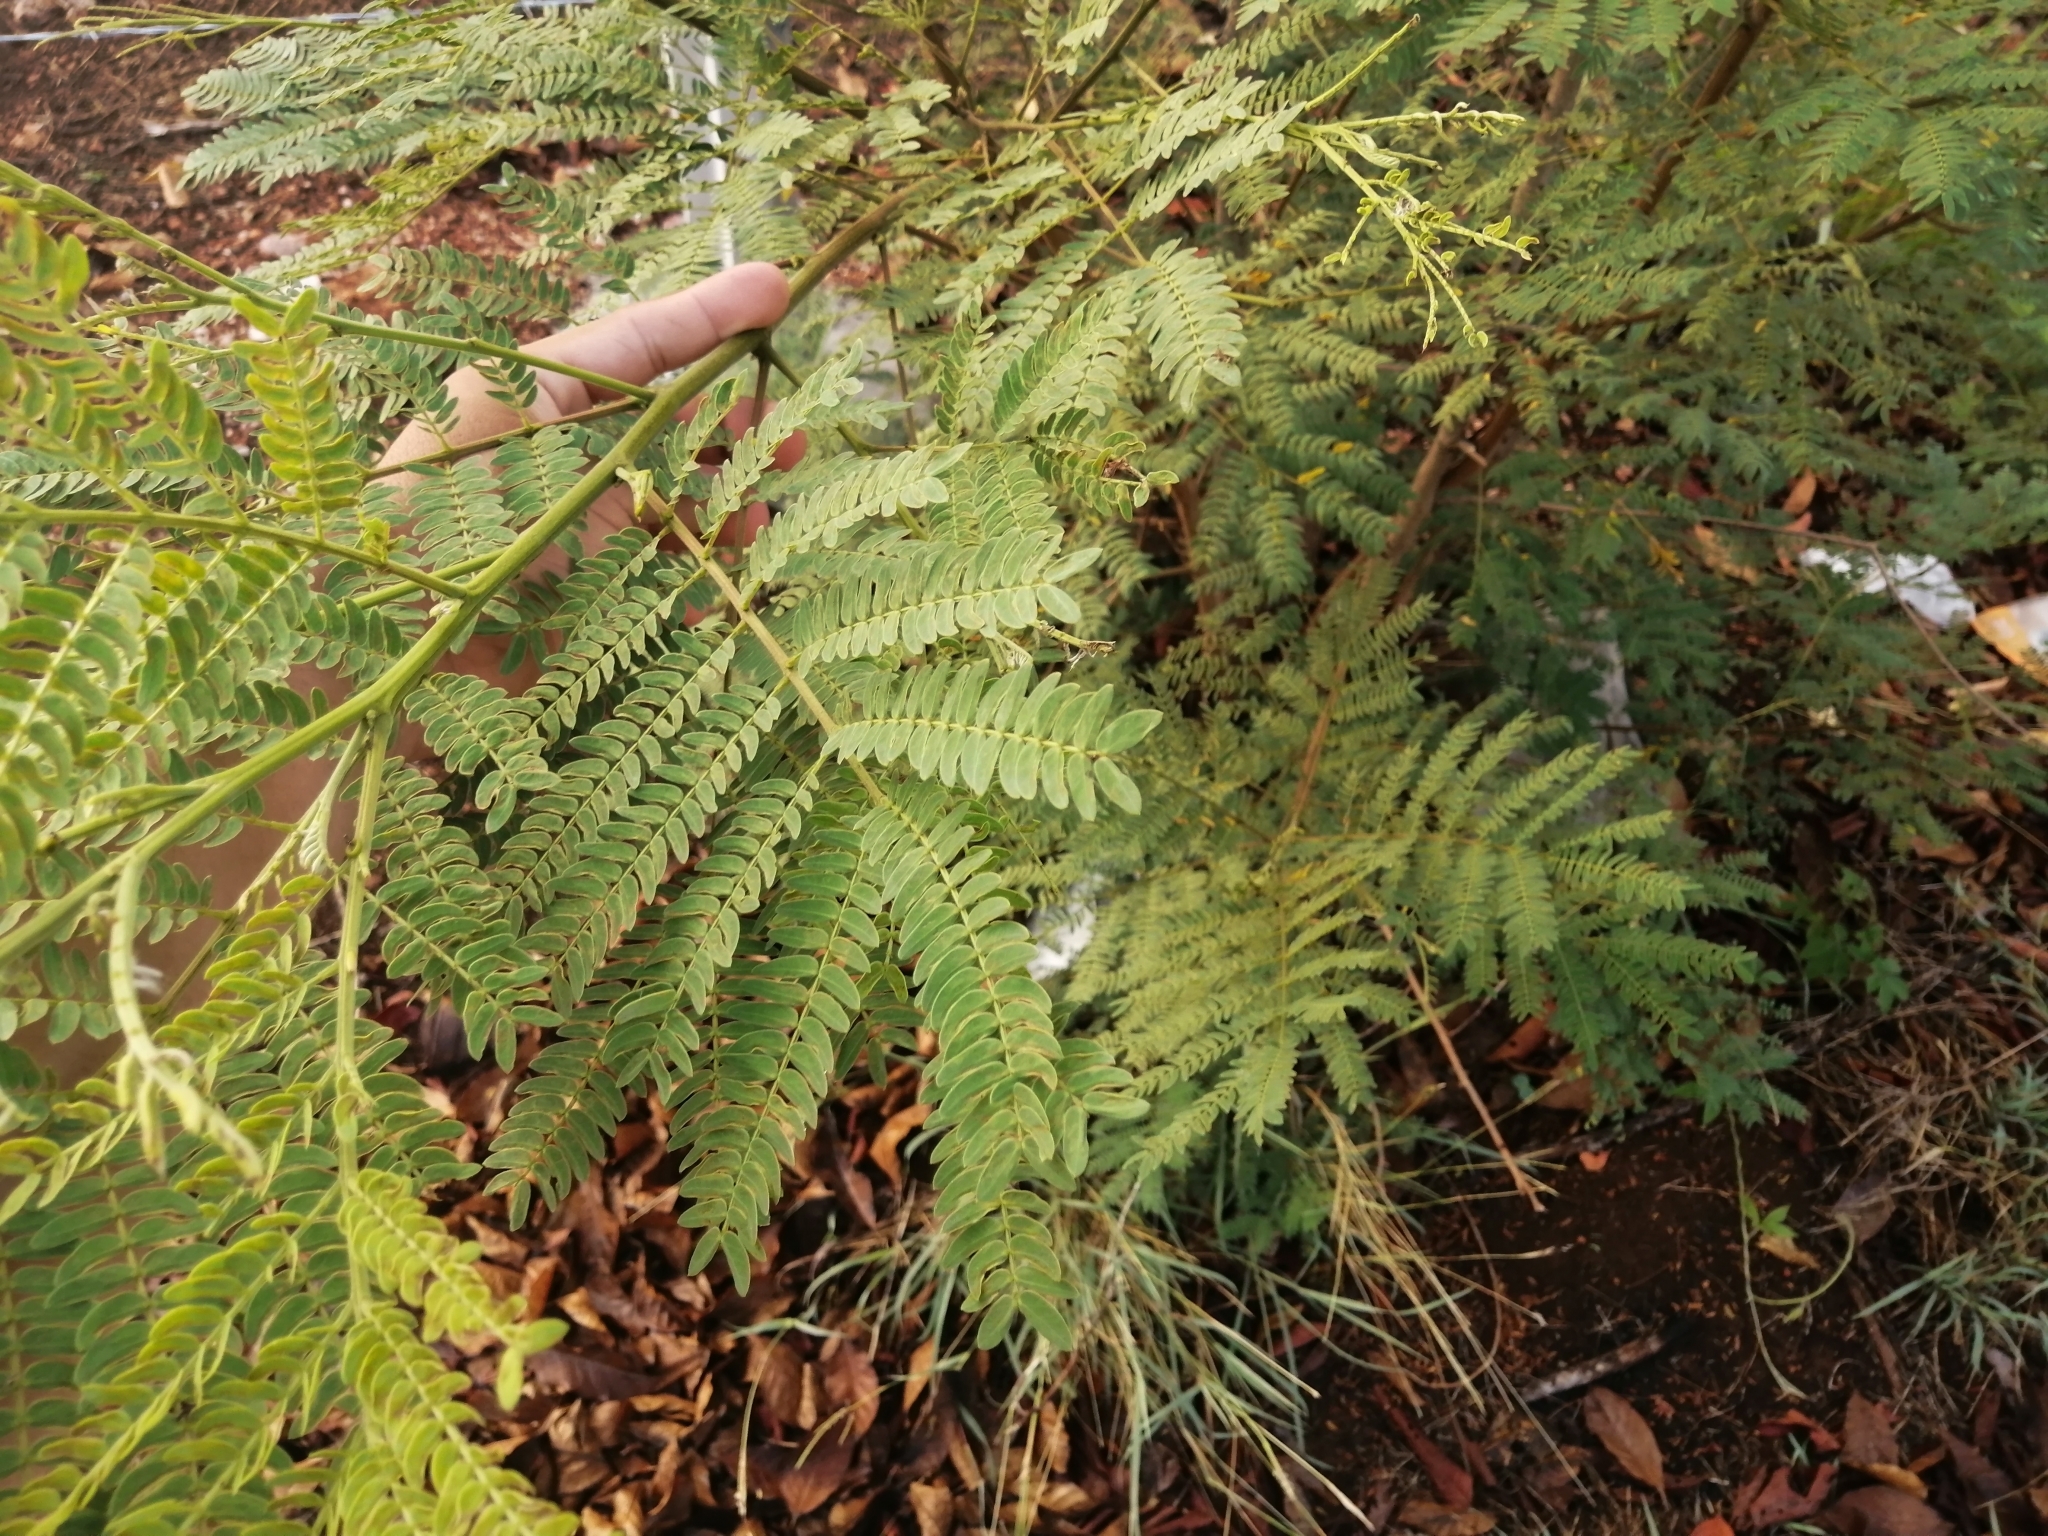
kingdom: Plantae
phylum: Tracheophyta
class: Magnoliopsida
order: Fabales
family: Fabaceae
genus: Leucaena
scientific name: Leucaena leucocephala
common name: White leadtree
